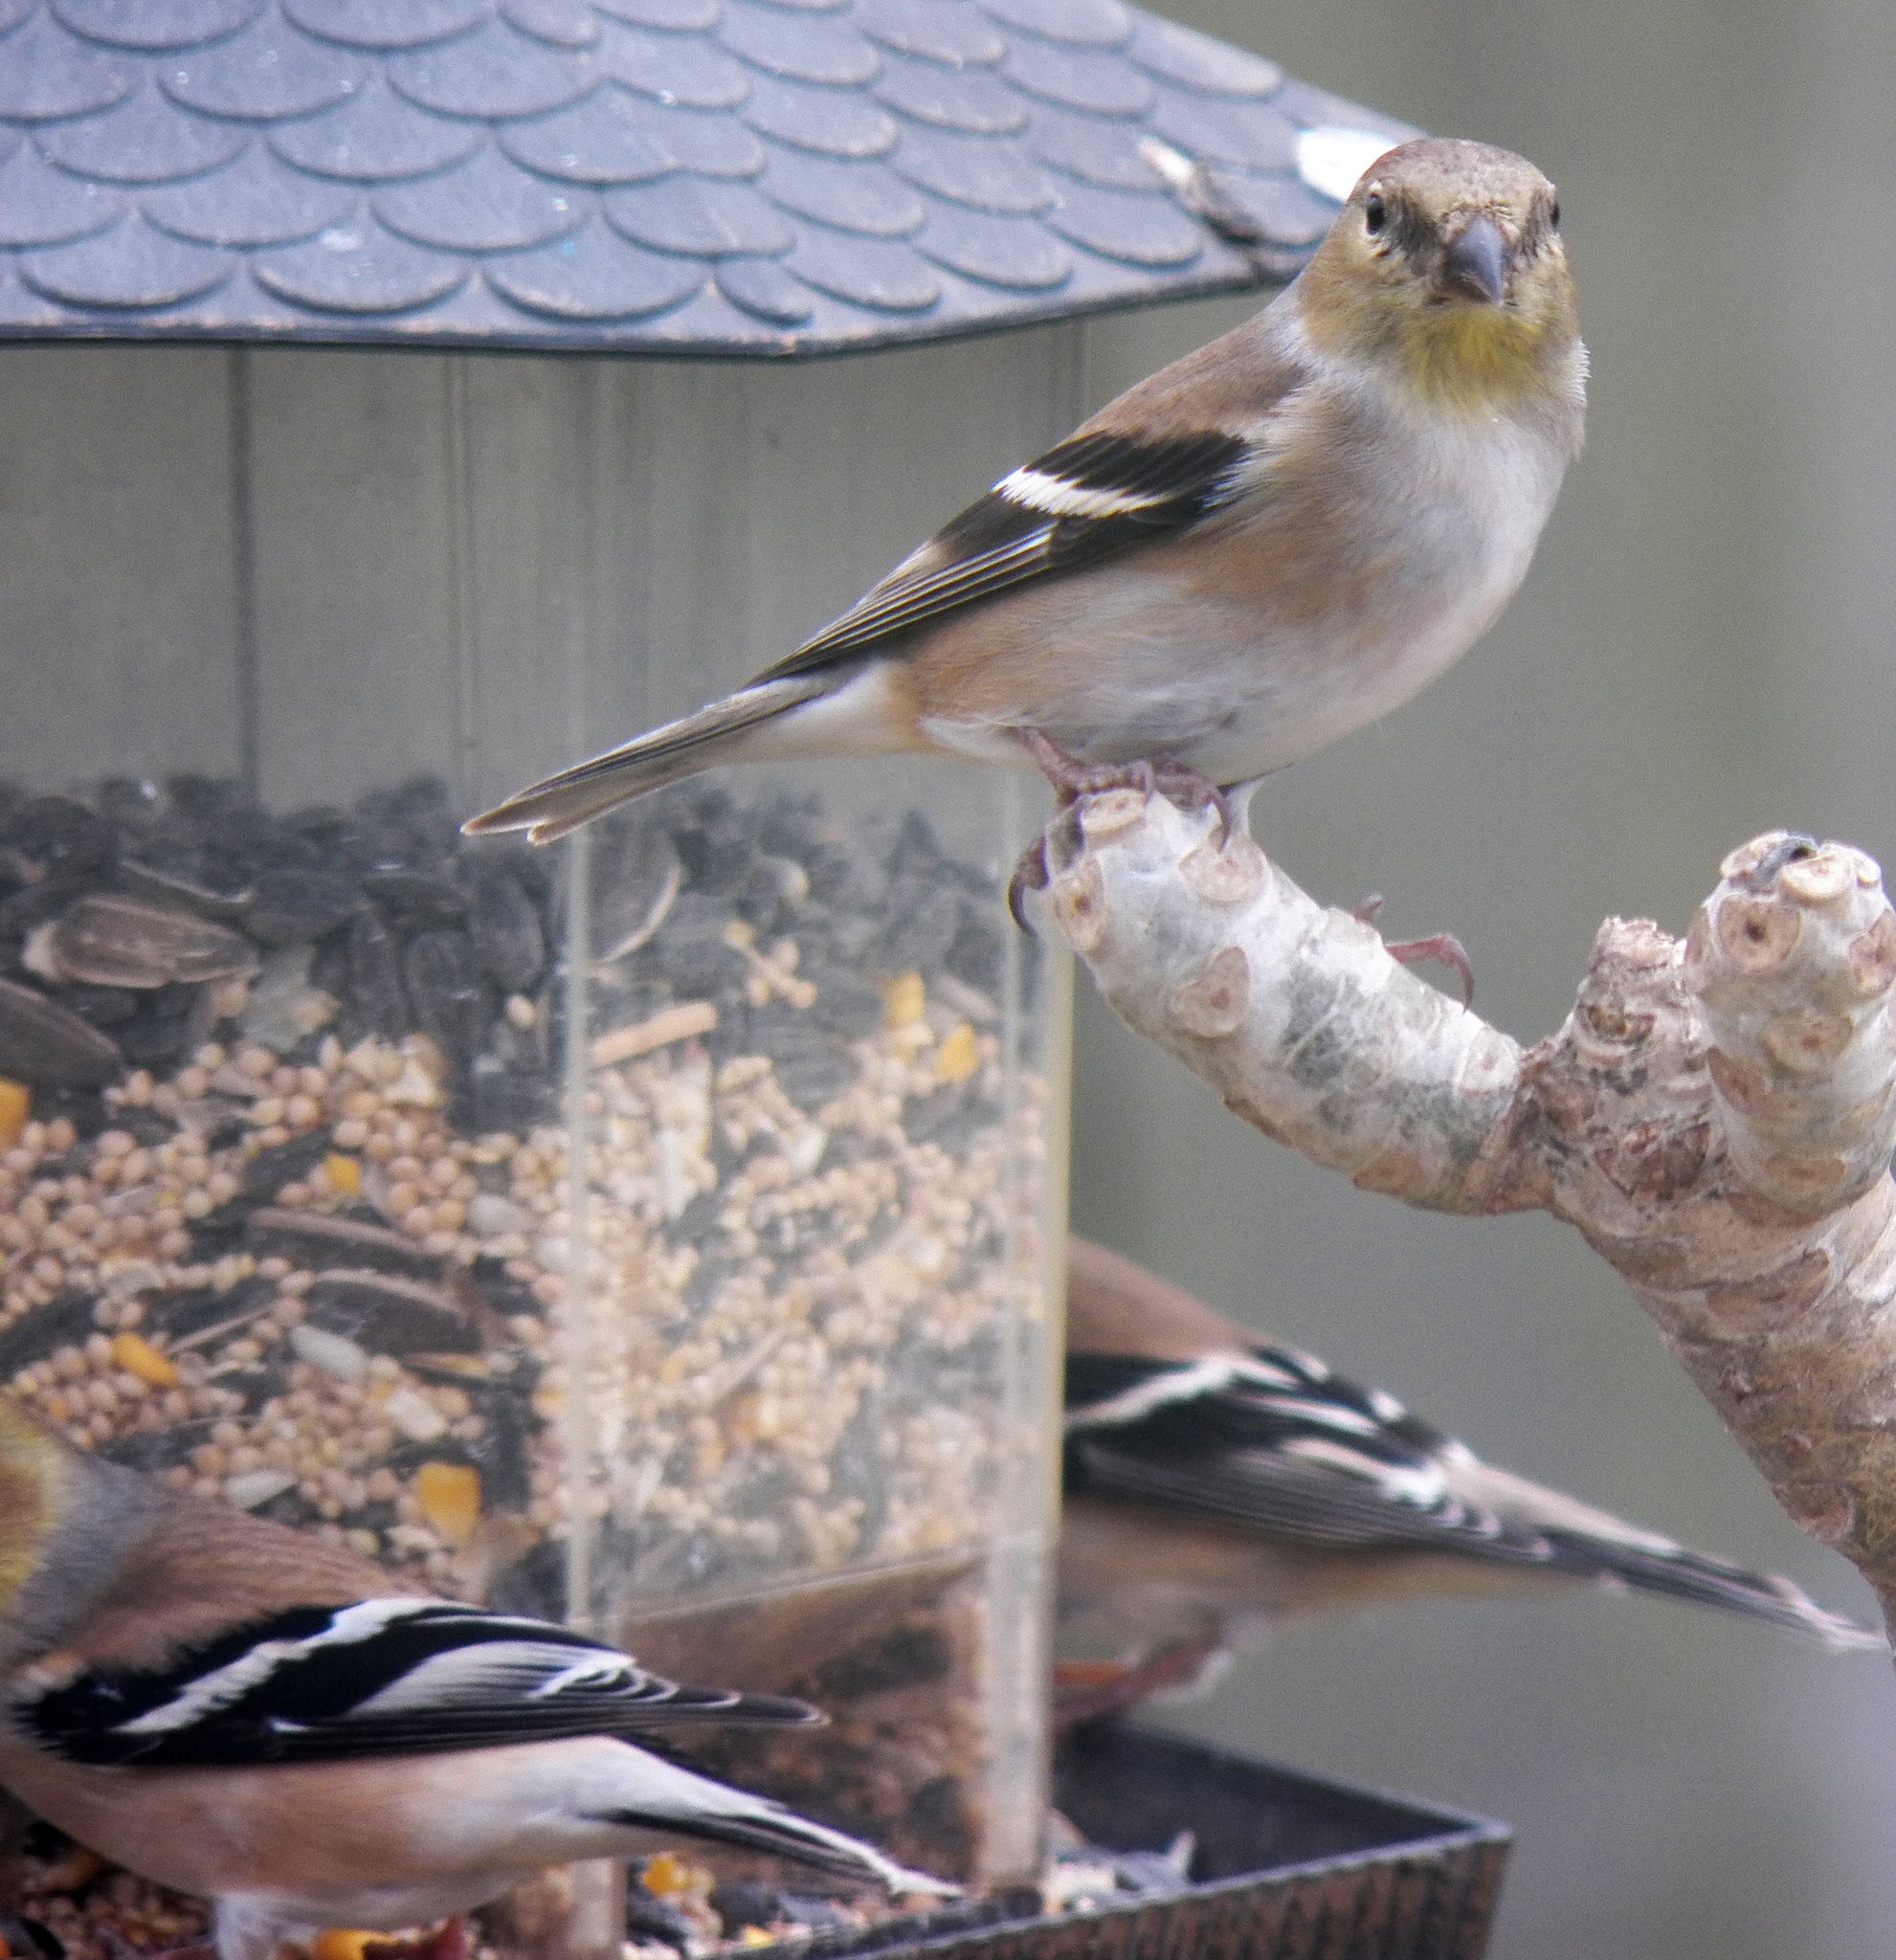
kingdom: Animalia
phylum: Chordata
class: Aves
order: Passeriformes
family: Fringillidae
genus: Spinus
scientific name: Spinus tristis
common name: American goldfinch
